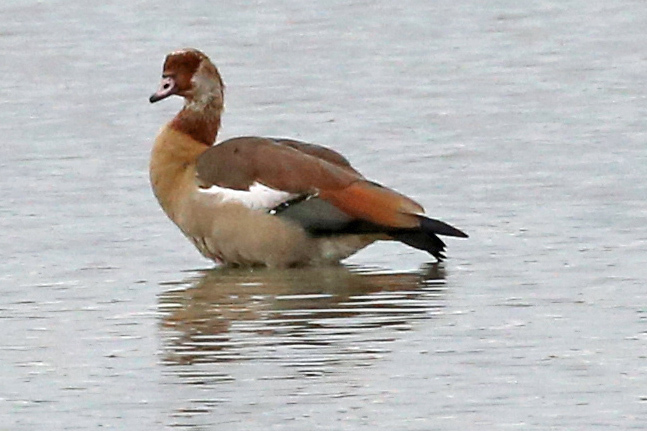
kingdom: Animalia
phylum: Chordata
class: Aves
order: Anseriformes
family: Anatidae
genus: Alopochen
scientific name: Alopochen aegyptiaca
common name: Egyptian goose
